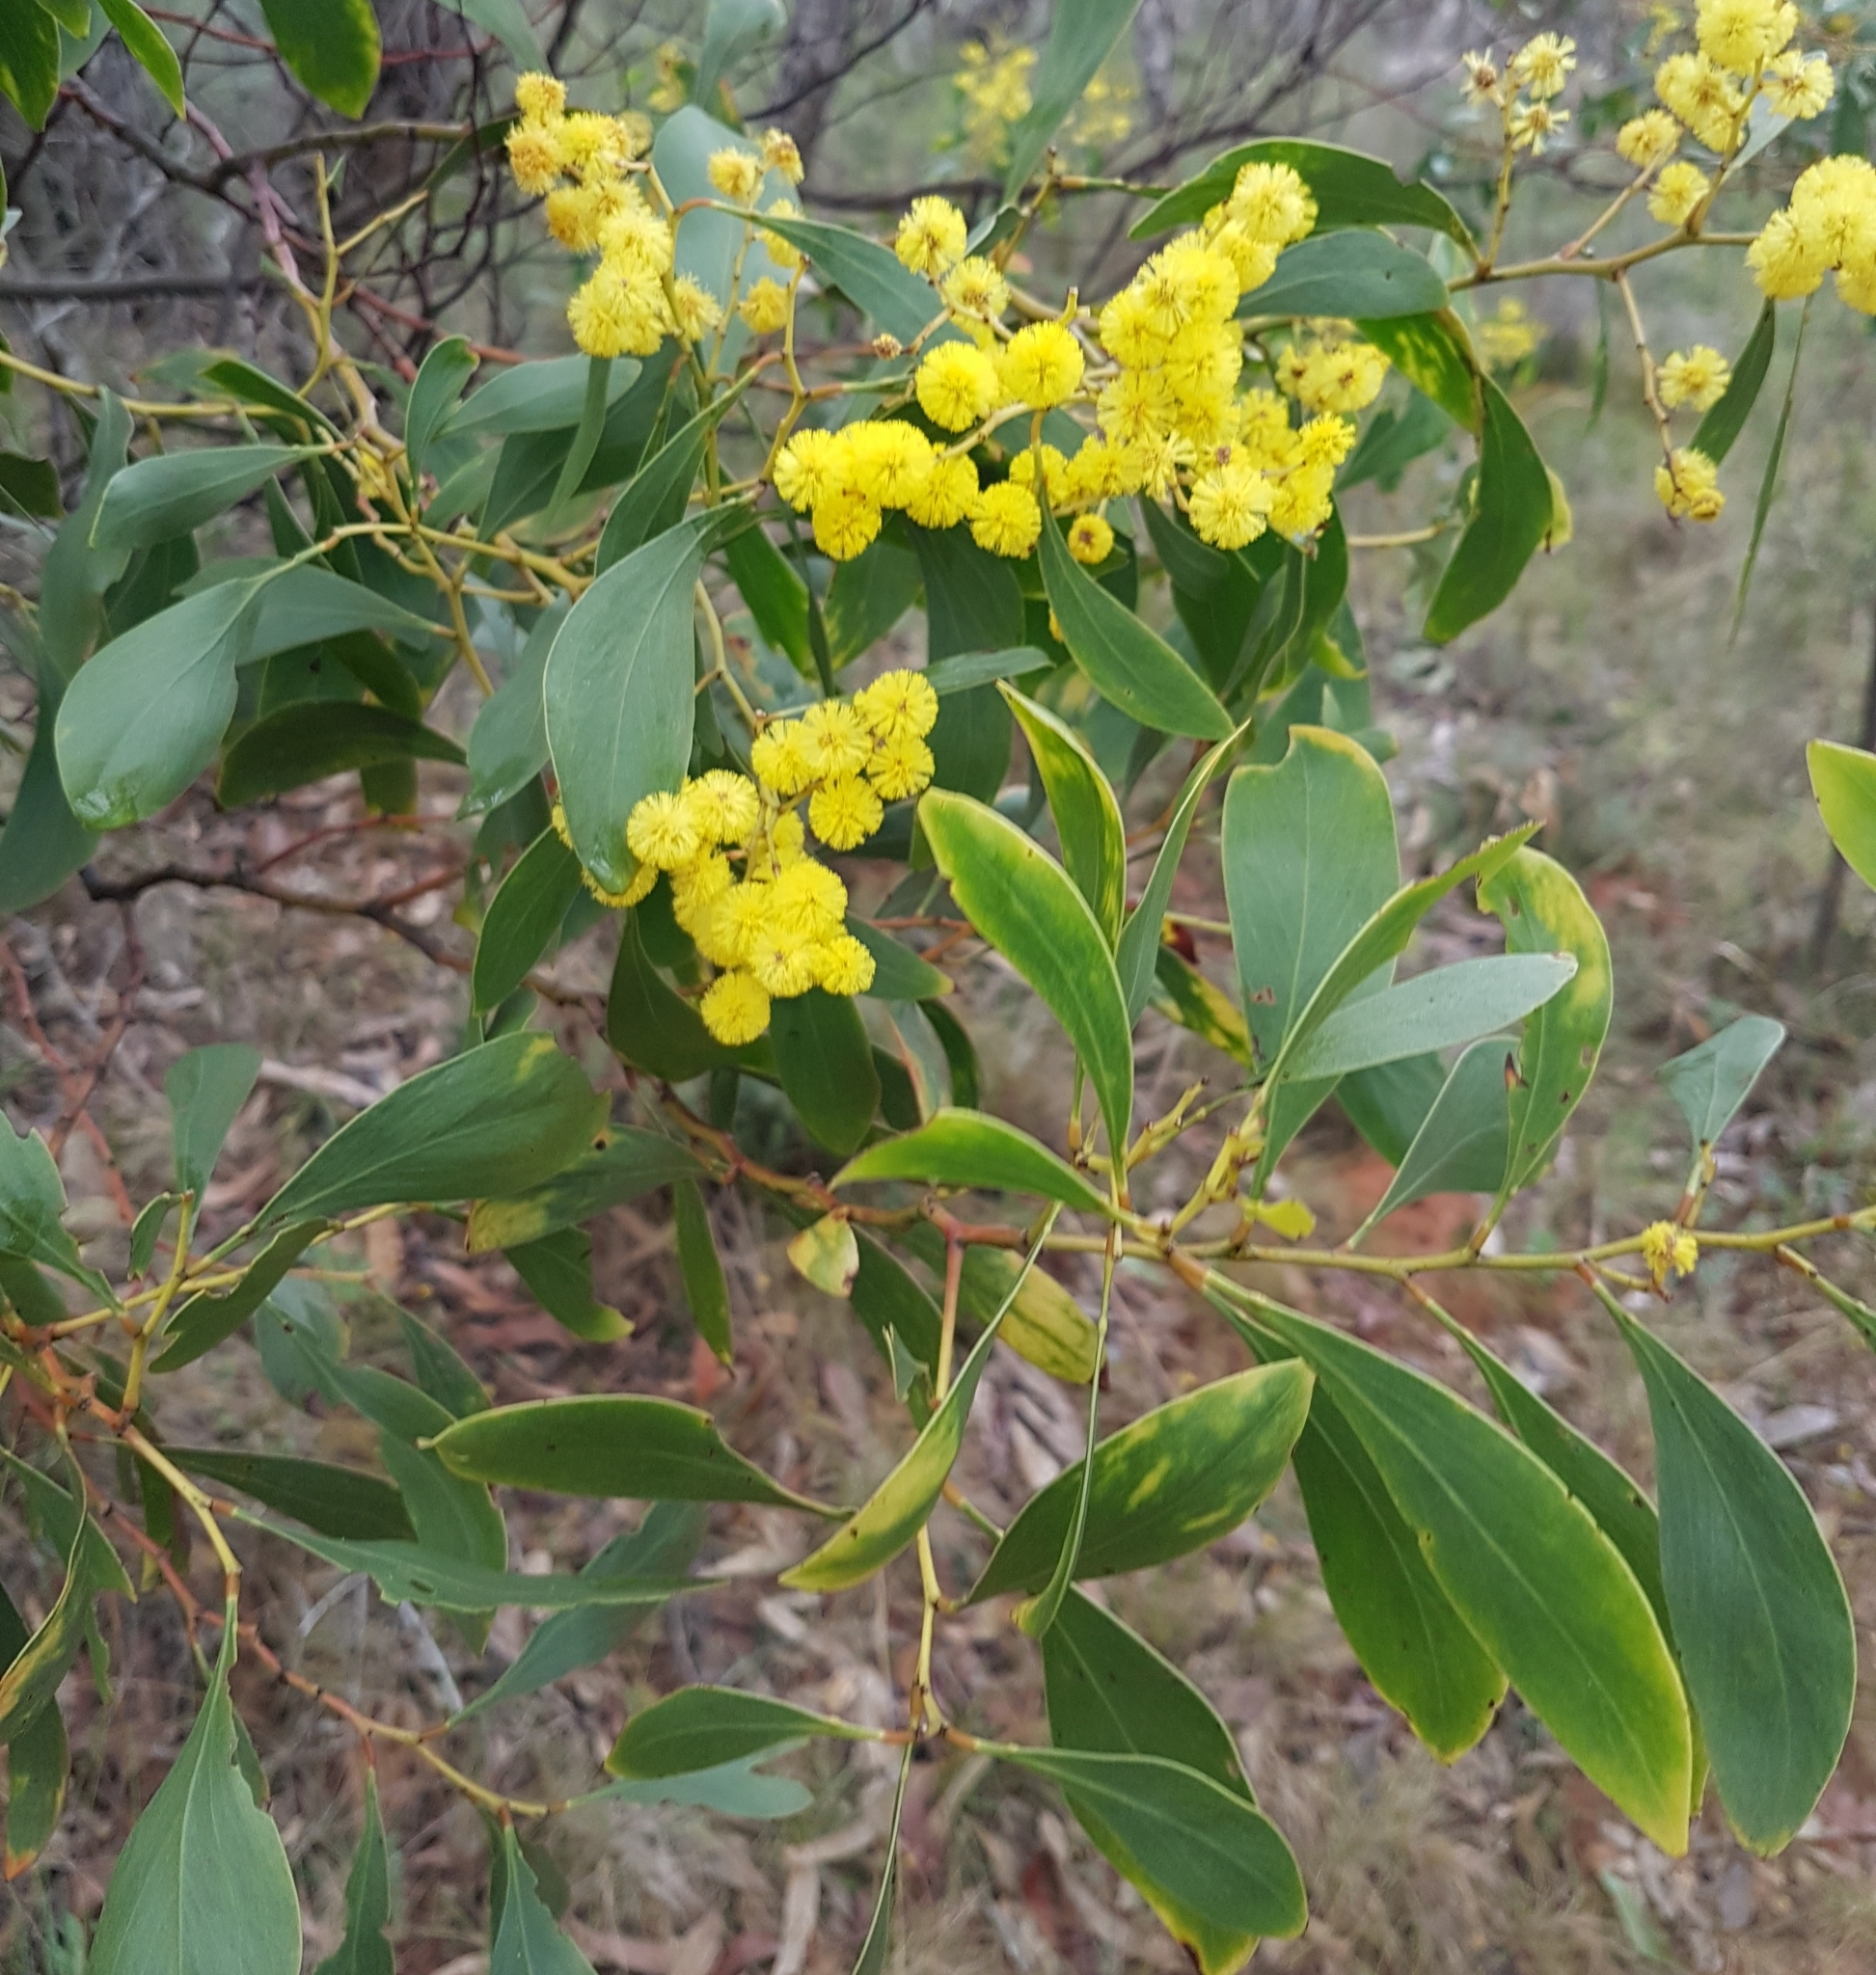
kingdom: Plantae
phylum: Tracheophyta
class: Magnoliopsida
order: Fabales
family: Fabaceae
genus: Acacia
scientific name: Acacia pycnantha
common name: Golden wattle
